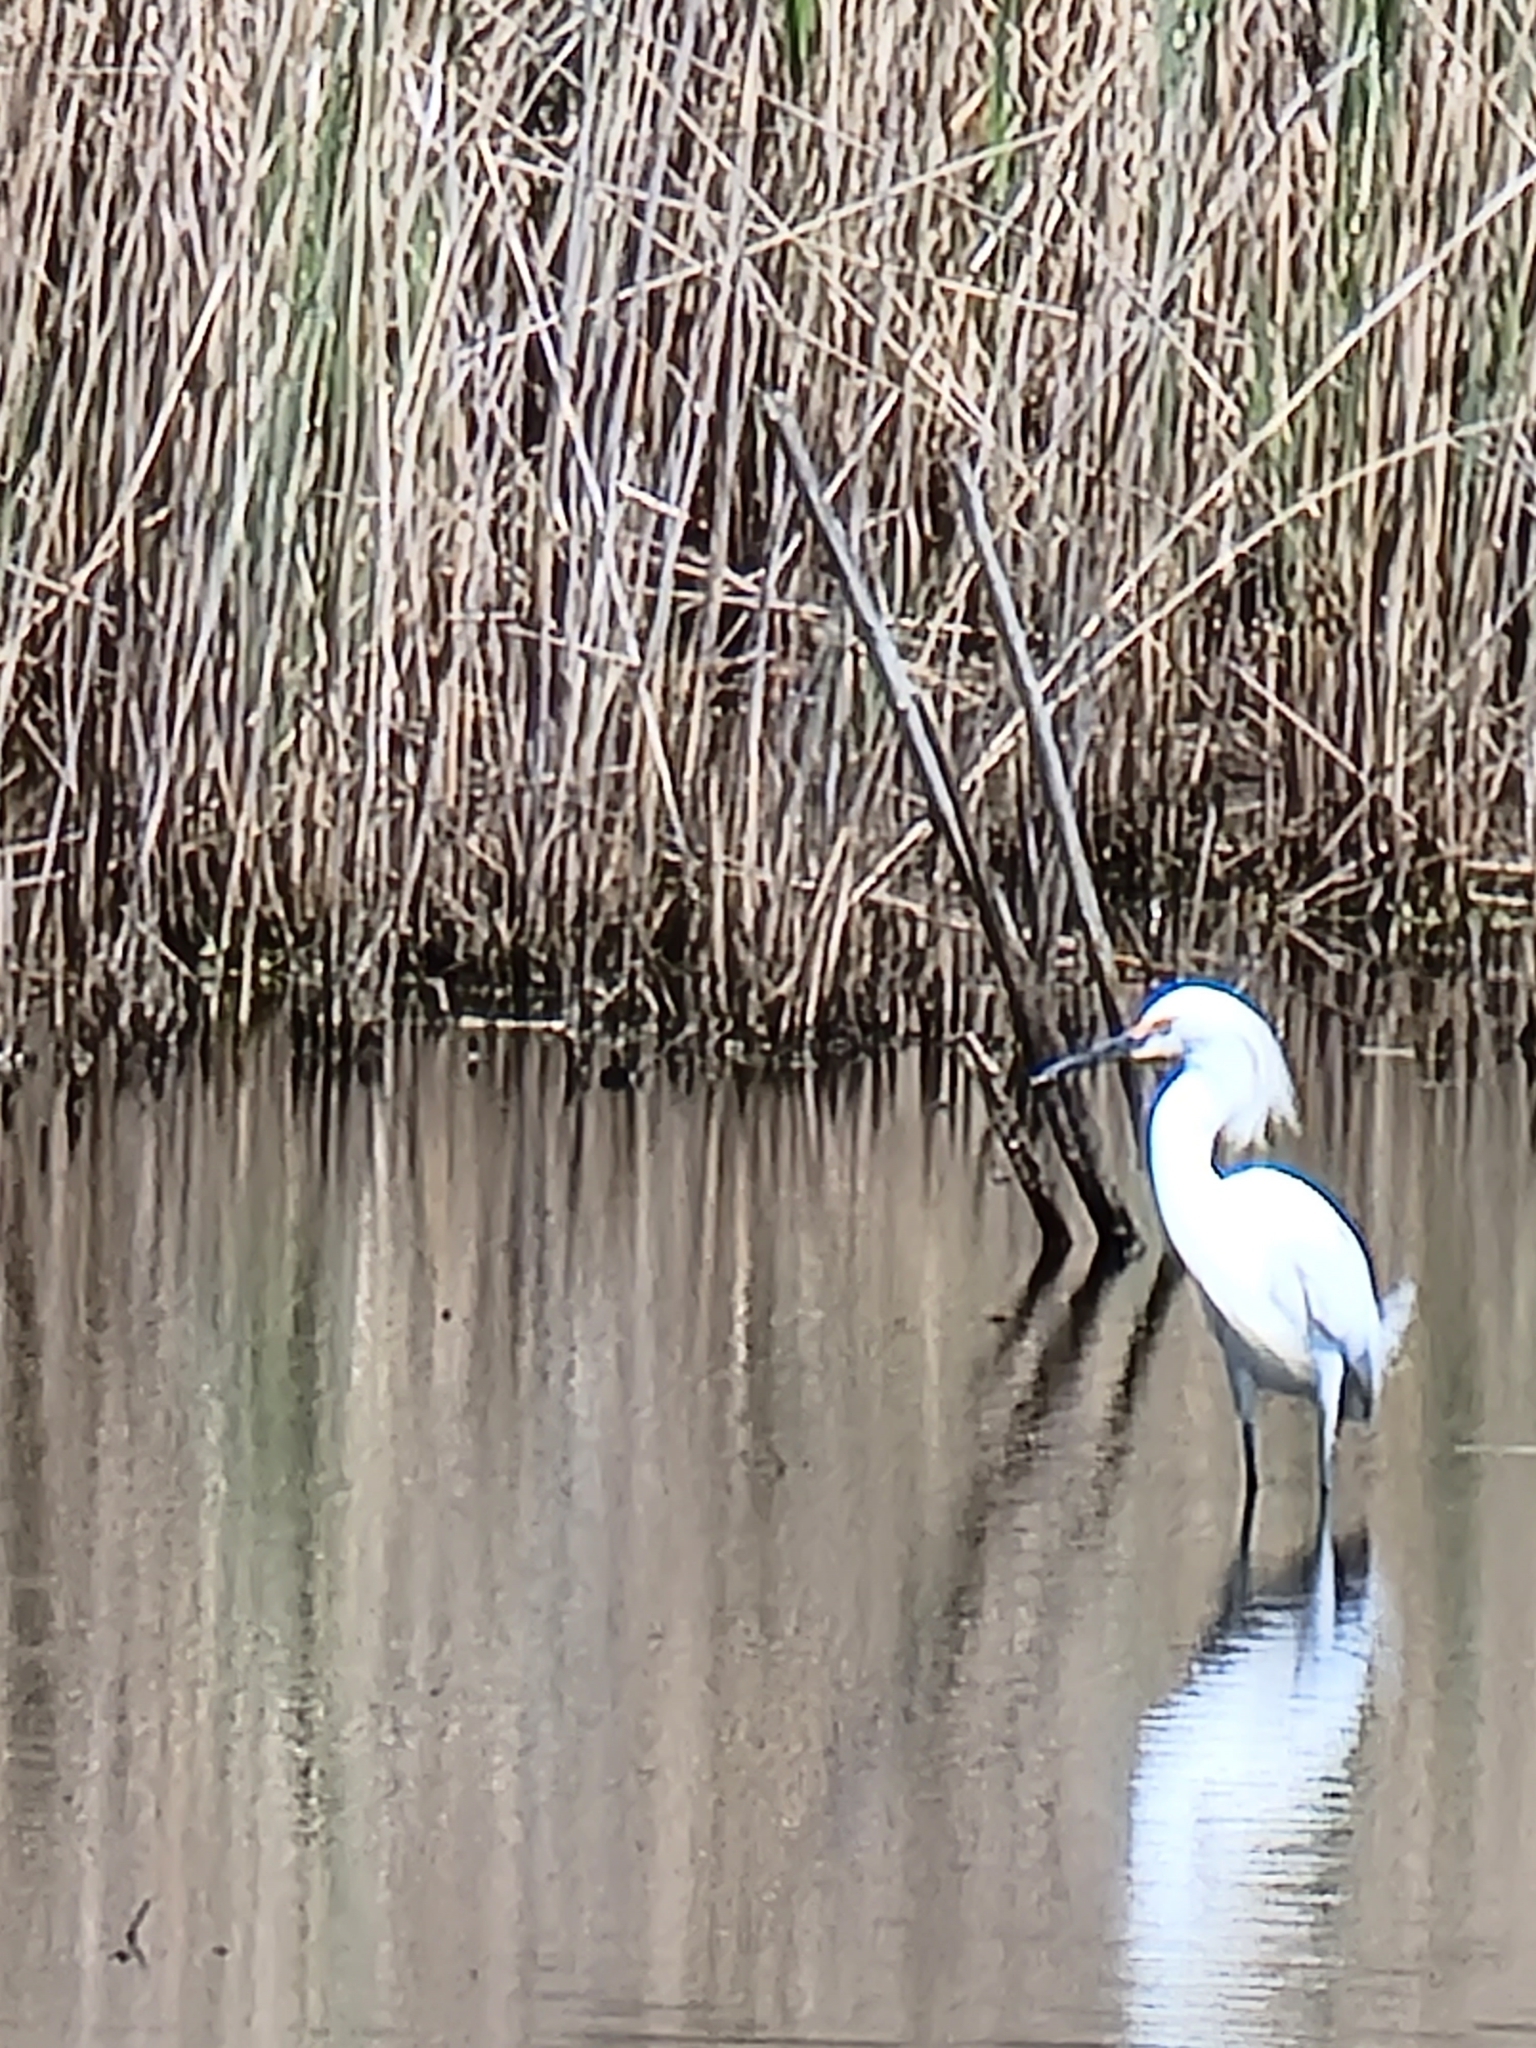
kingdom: Animalia
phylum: Chordata
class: Aves
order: Pelecaniformes
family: Ardeidae
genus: Egretta
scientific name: Egretta thula
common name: Snowy egret
